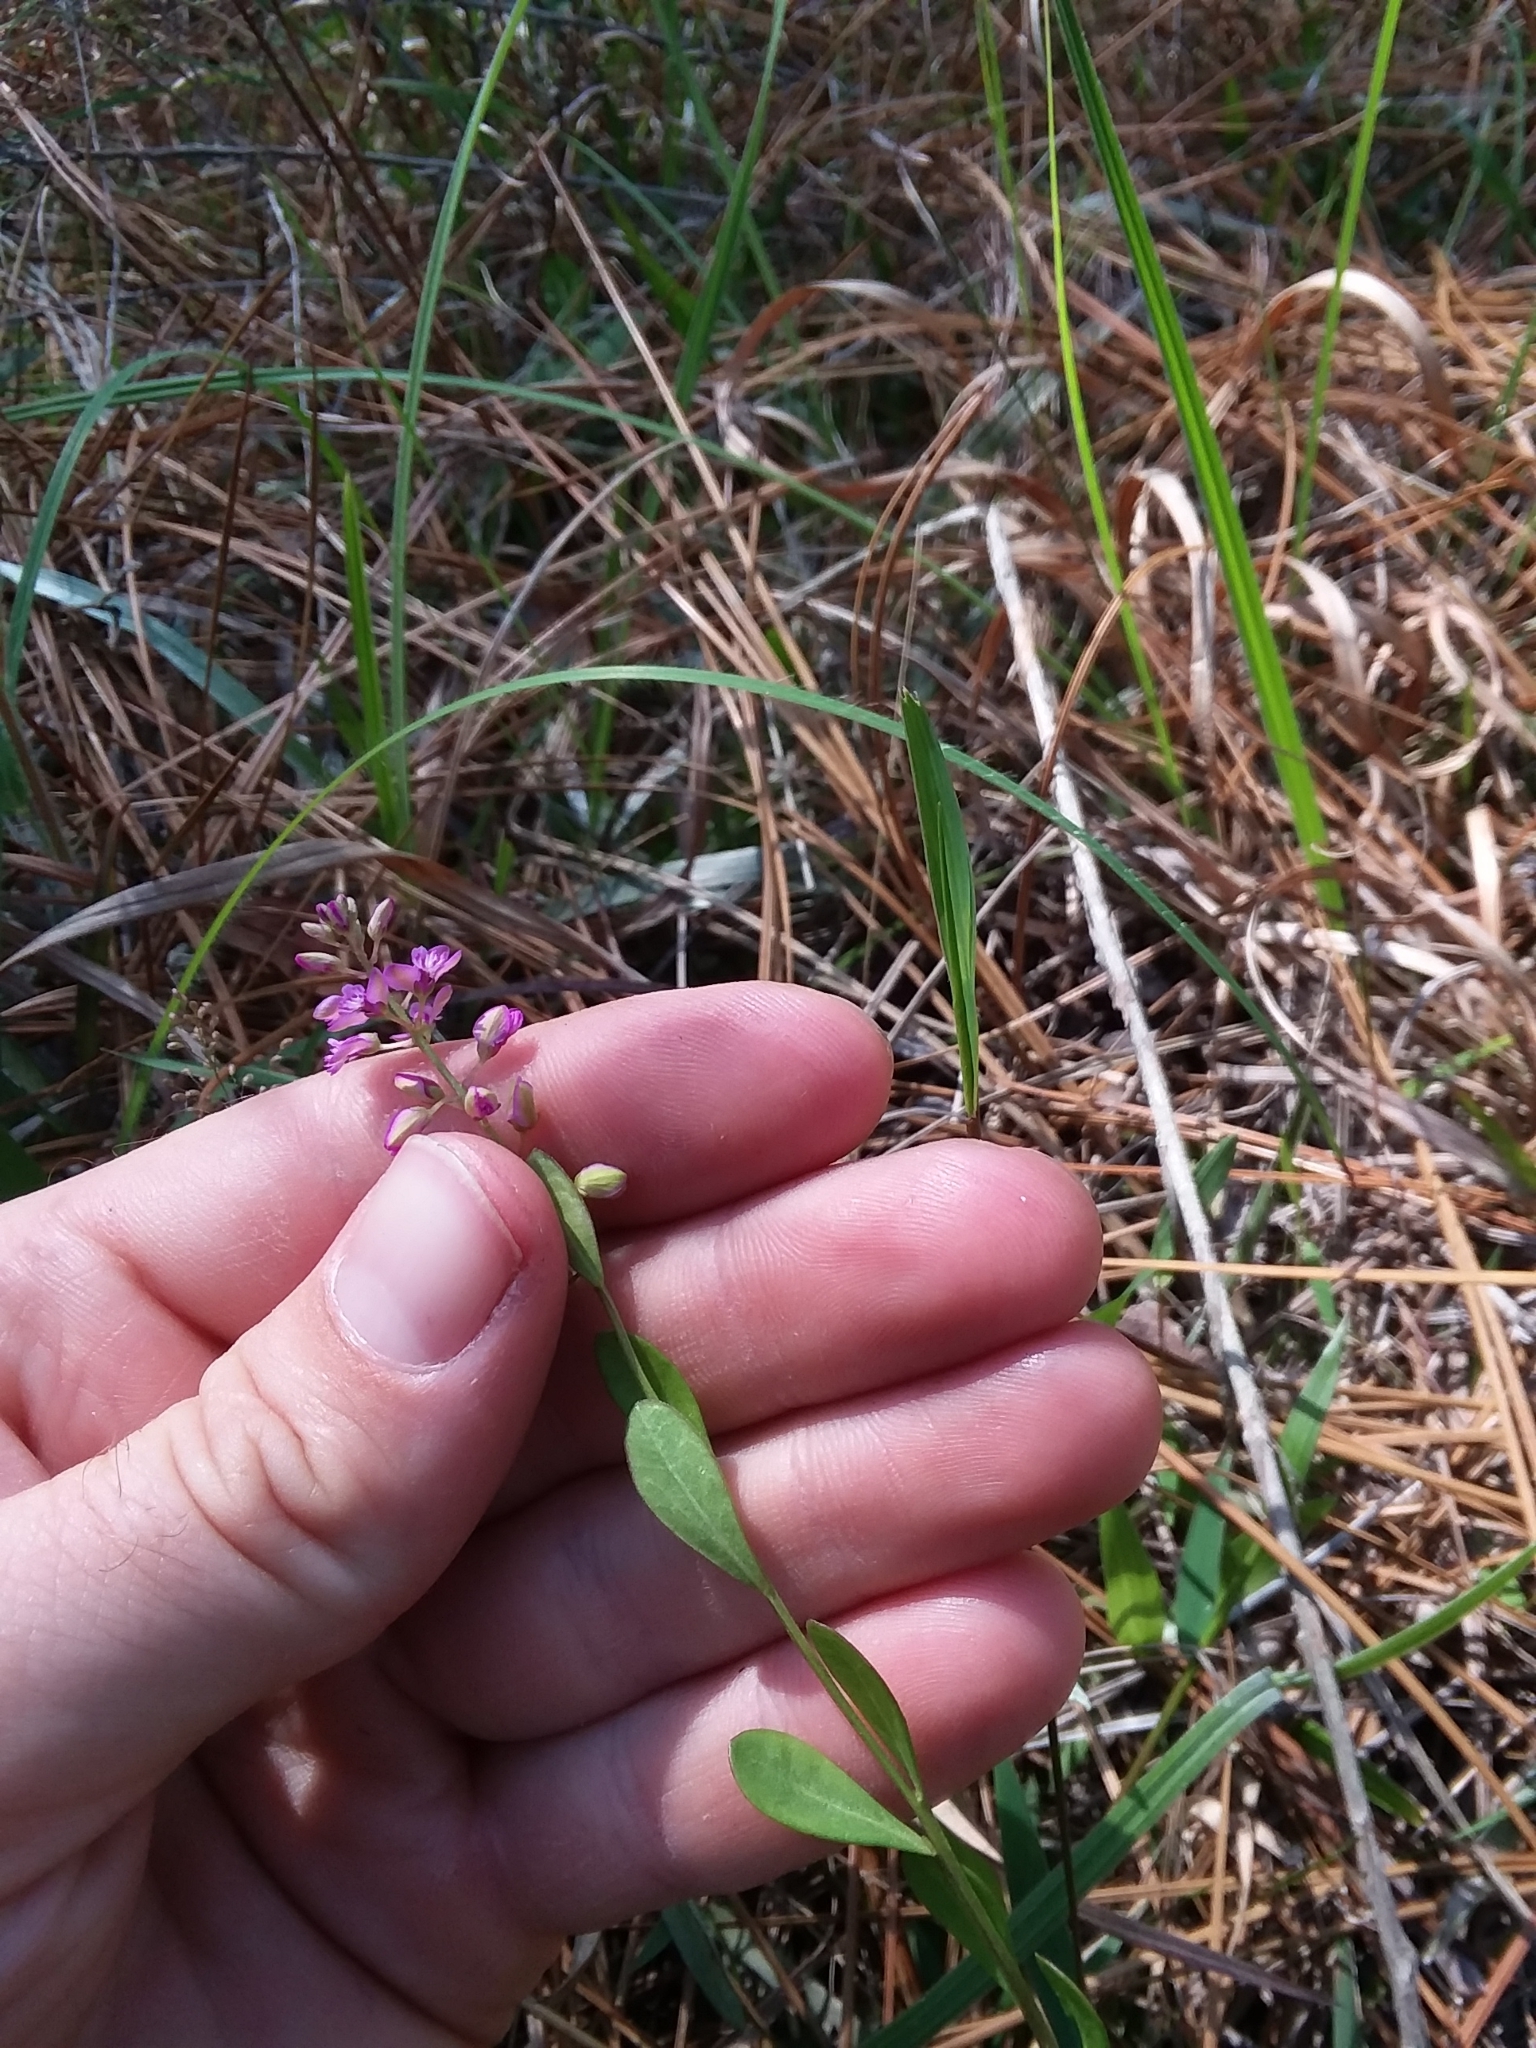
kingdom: Plantae
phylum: Tracheophyta
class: Magnoliopsida
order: Fabales
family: Polygalaceae
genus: Polygala
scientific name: Polygala crenata
